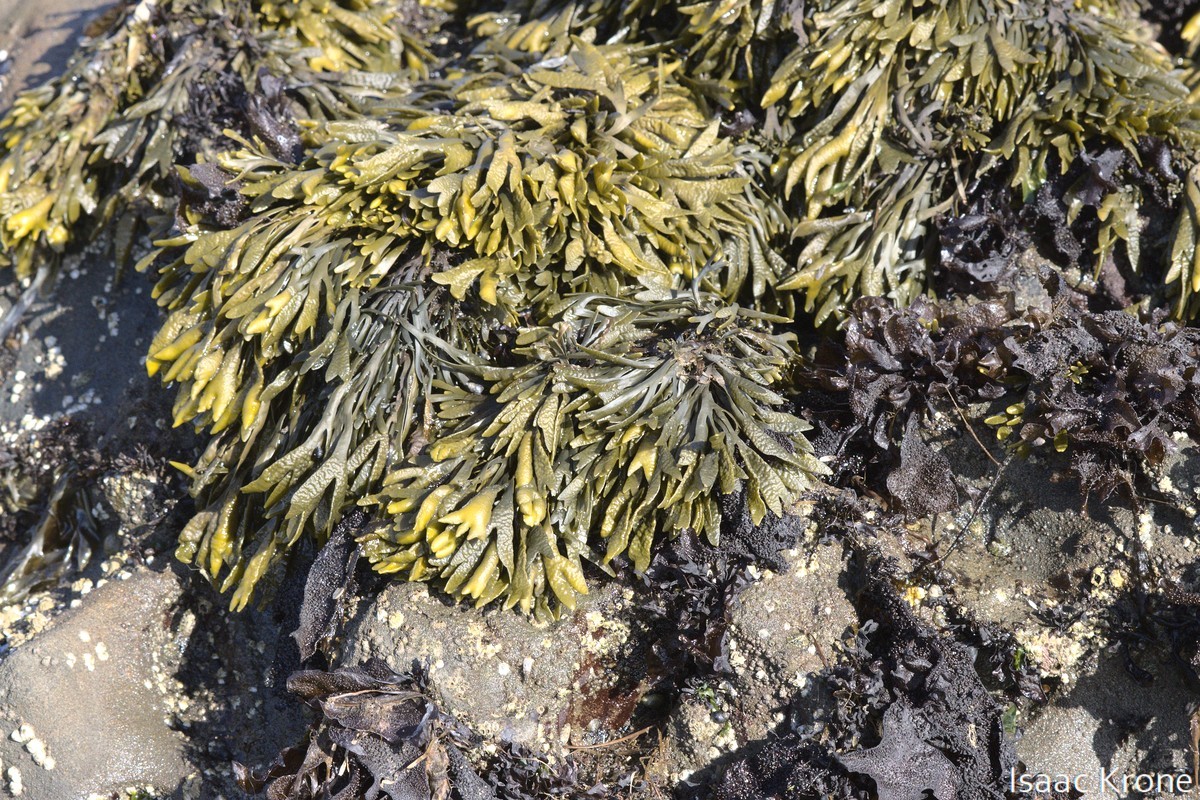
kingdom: Chromista
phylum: Ochrophyta
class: Phaeophyceae
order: Fucales
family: Fucaceae
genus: Pelvetiopsis
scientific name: Pelvetiopsis limitata
